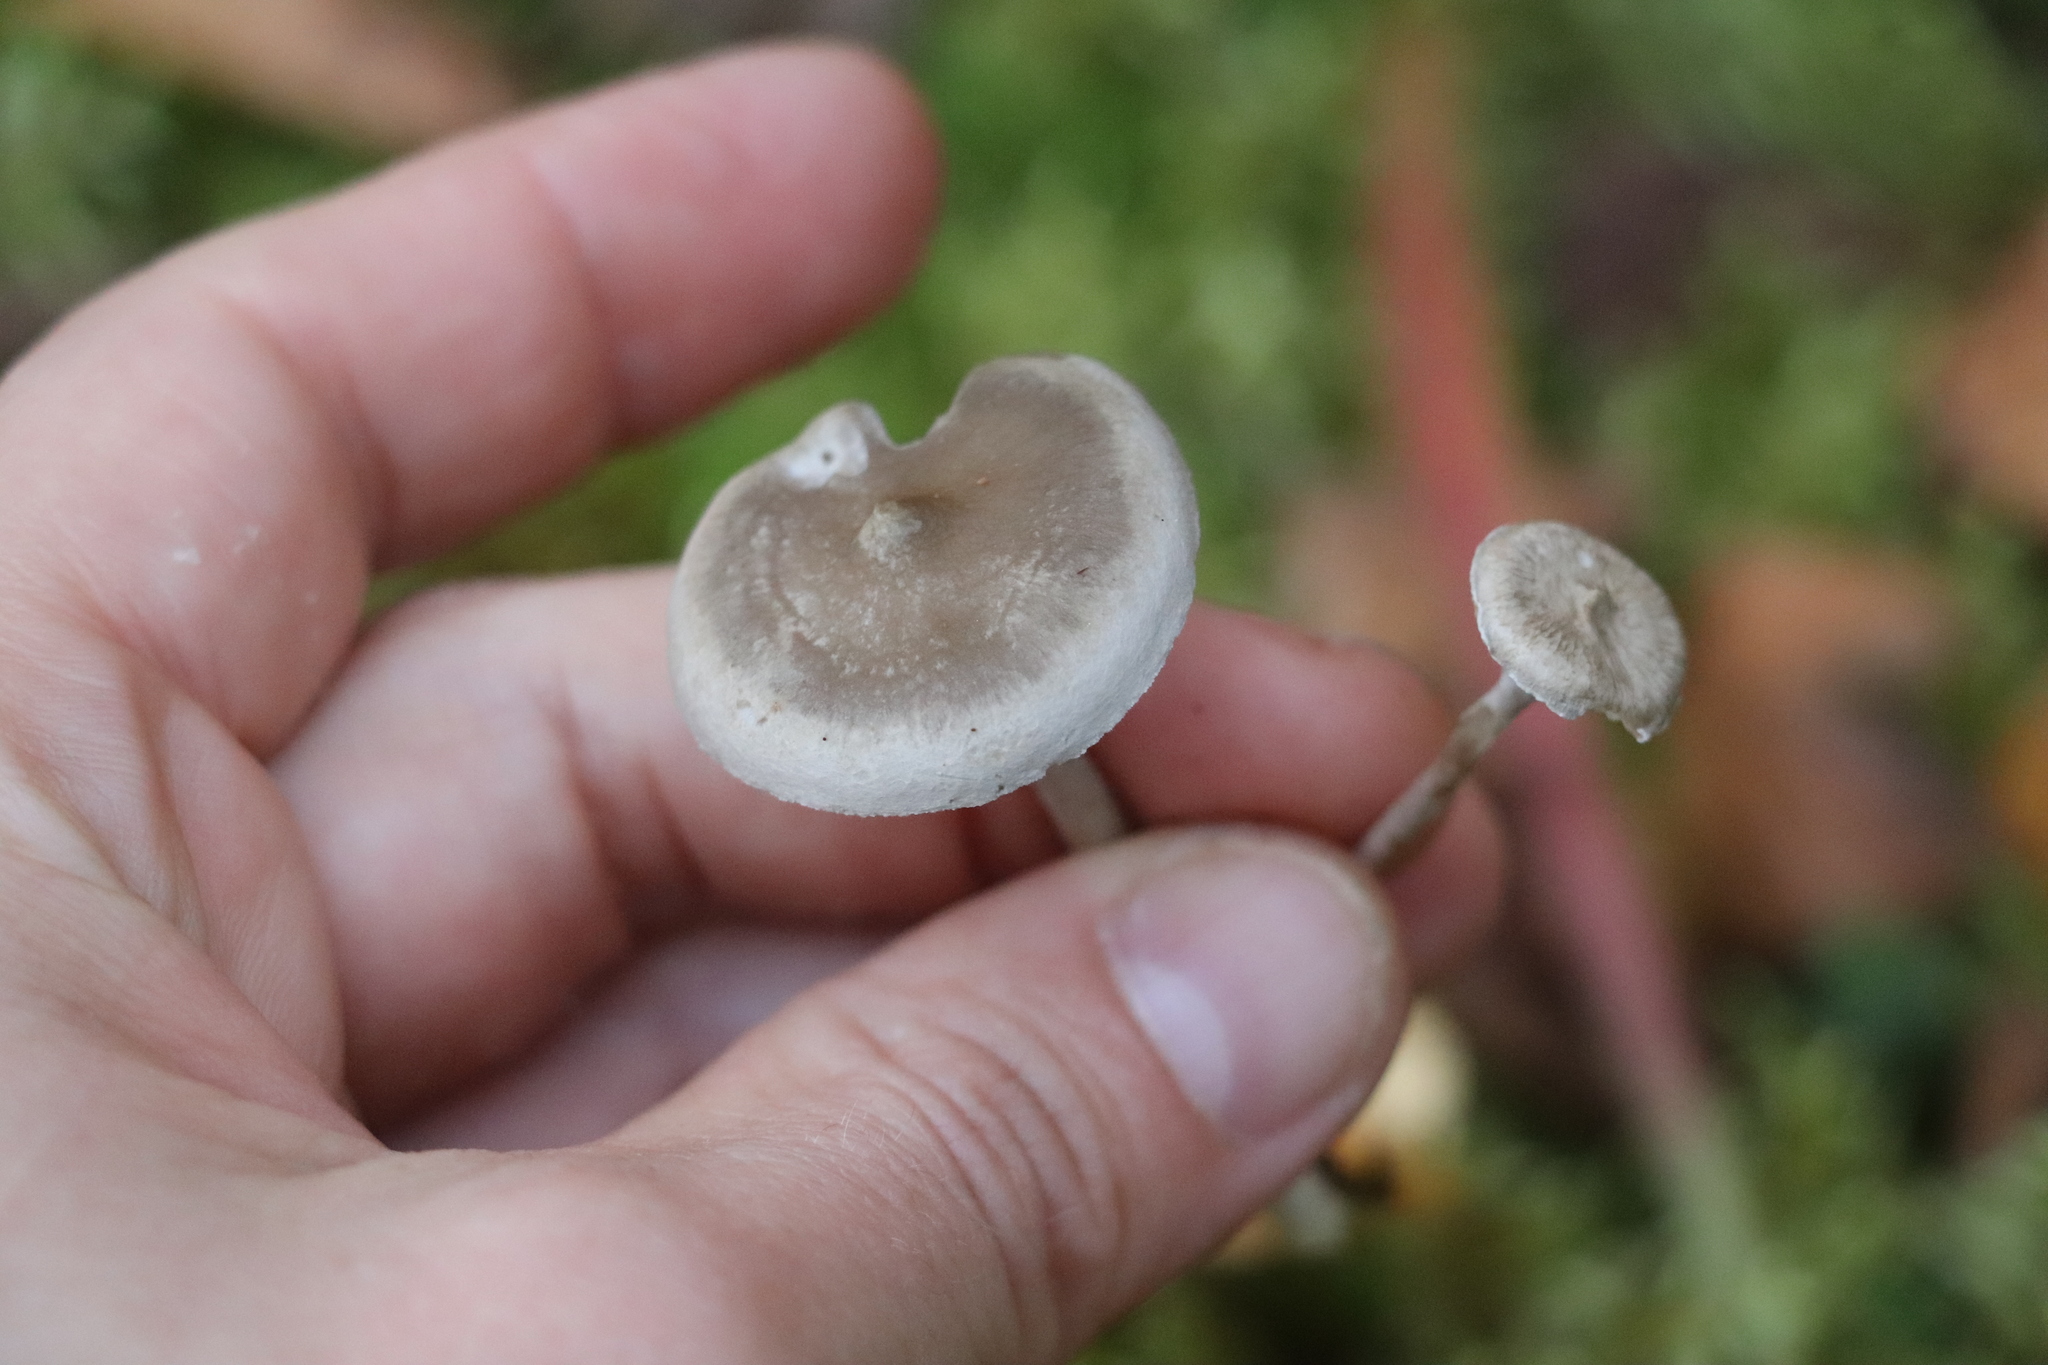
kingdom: Fungi
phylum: Basidiomycota
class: Agaricomycetes
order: Agaricales
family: Hygrophoraceae
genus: Cantharellula
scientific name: Cantharellula umbonata
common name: The humpback
